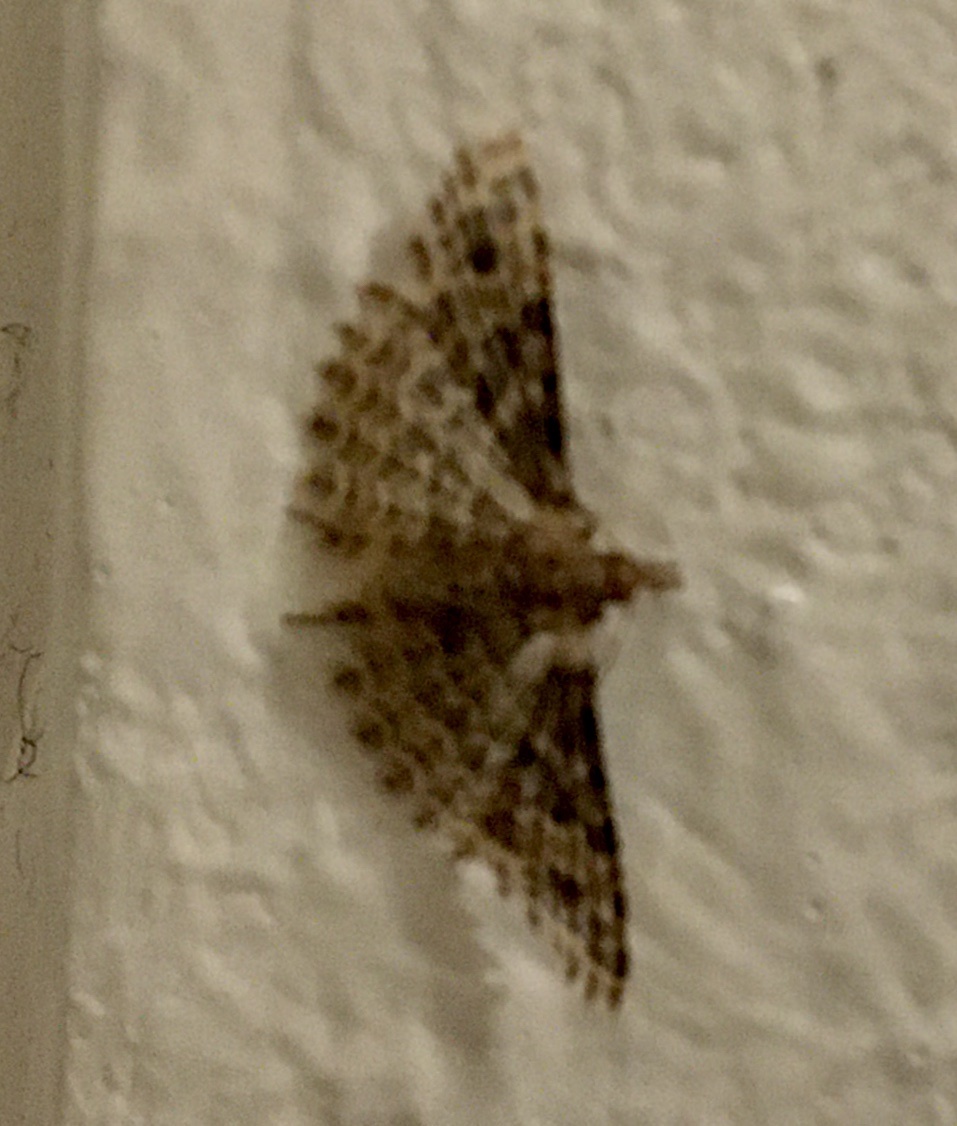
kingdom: Animalia
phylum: Arthropoda
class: Insecta
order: Lepidoptera
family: Alucitidae
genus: Alucita
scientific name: Alucita hexadactyla
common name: Twenty-plume moth
